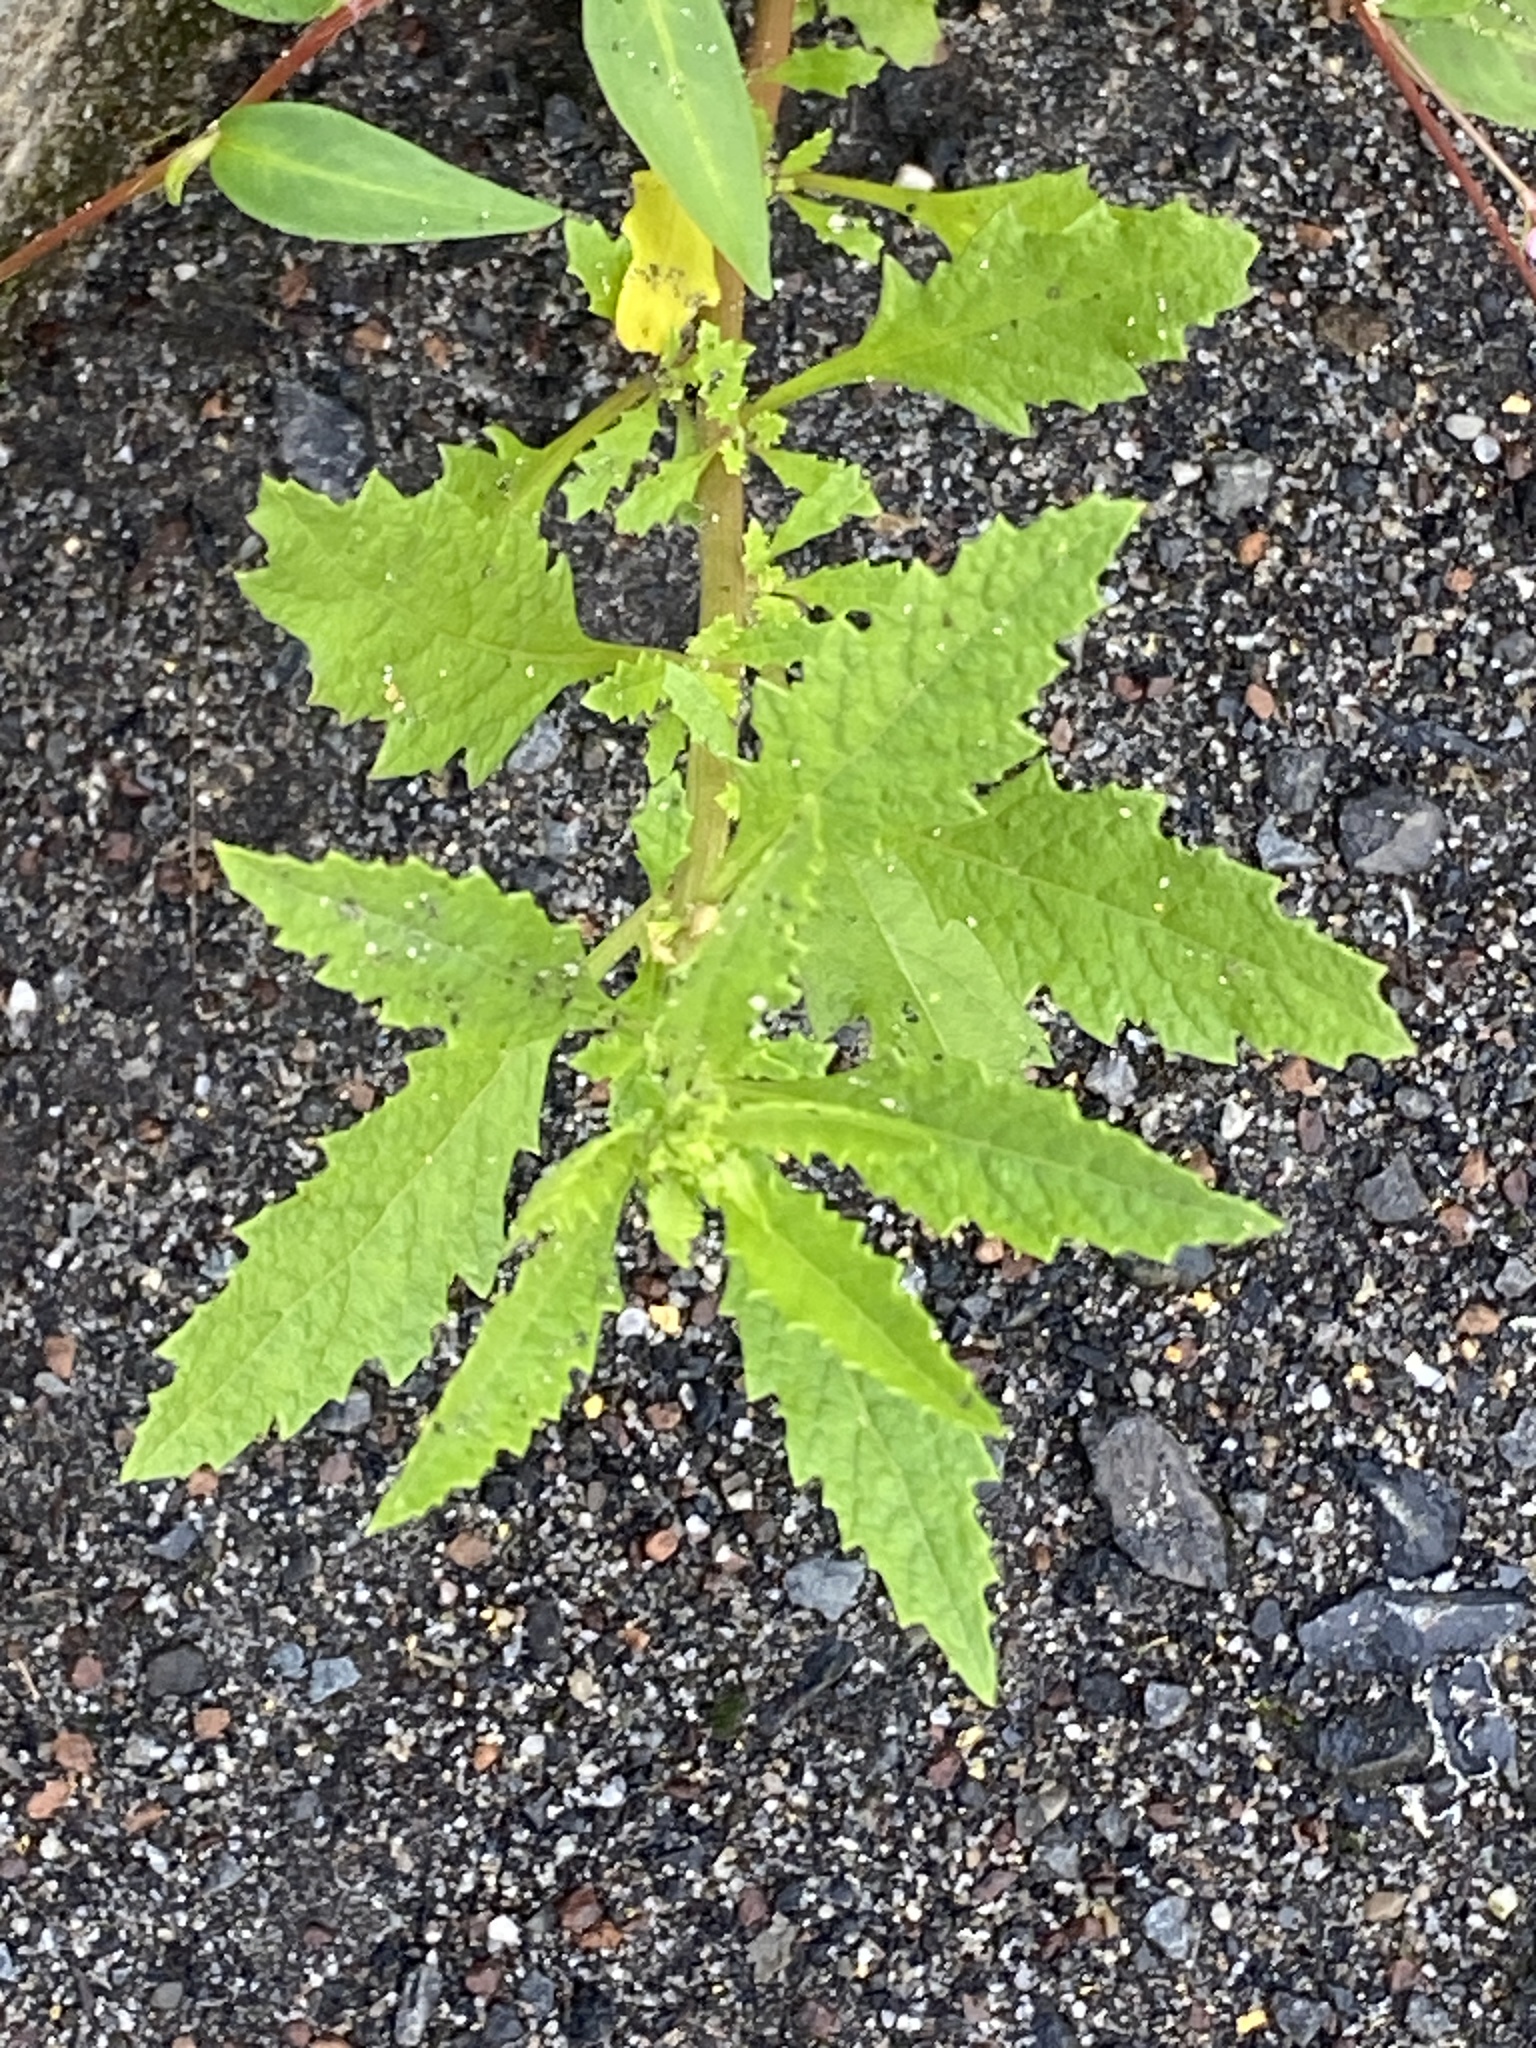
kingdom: Plantae
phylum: Tracheophyta
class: Magnoliopsida
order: Caryophyllales
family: Amaranthaceae
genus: Dysphania
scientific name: Dysphania ambrosioides
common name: Wormseed
